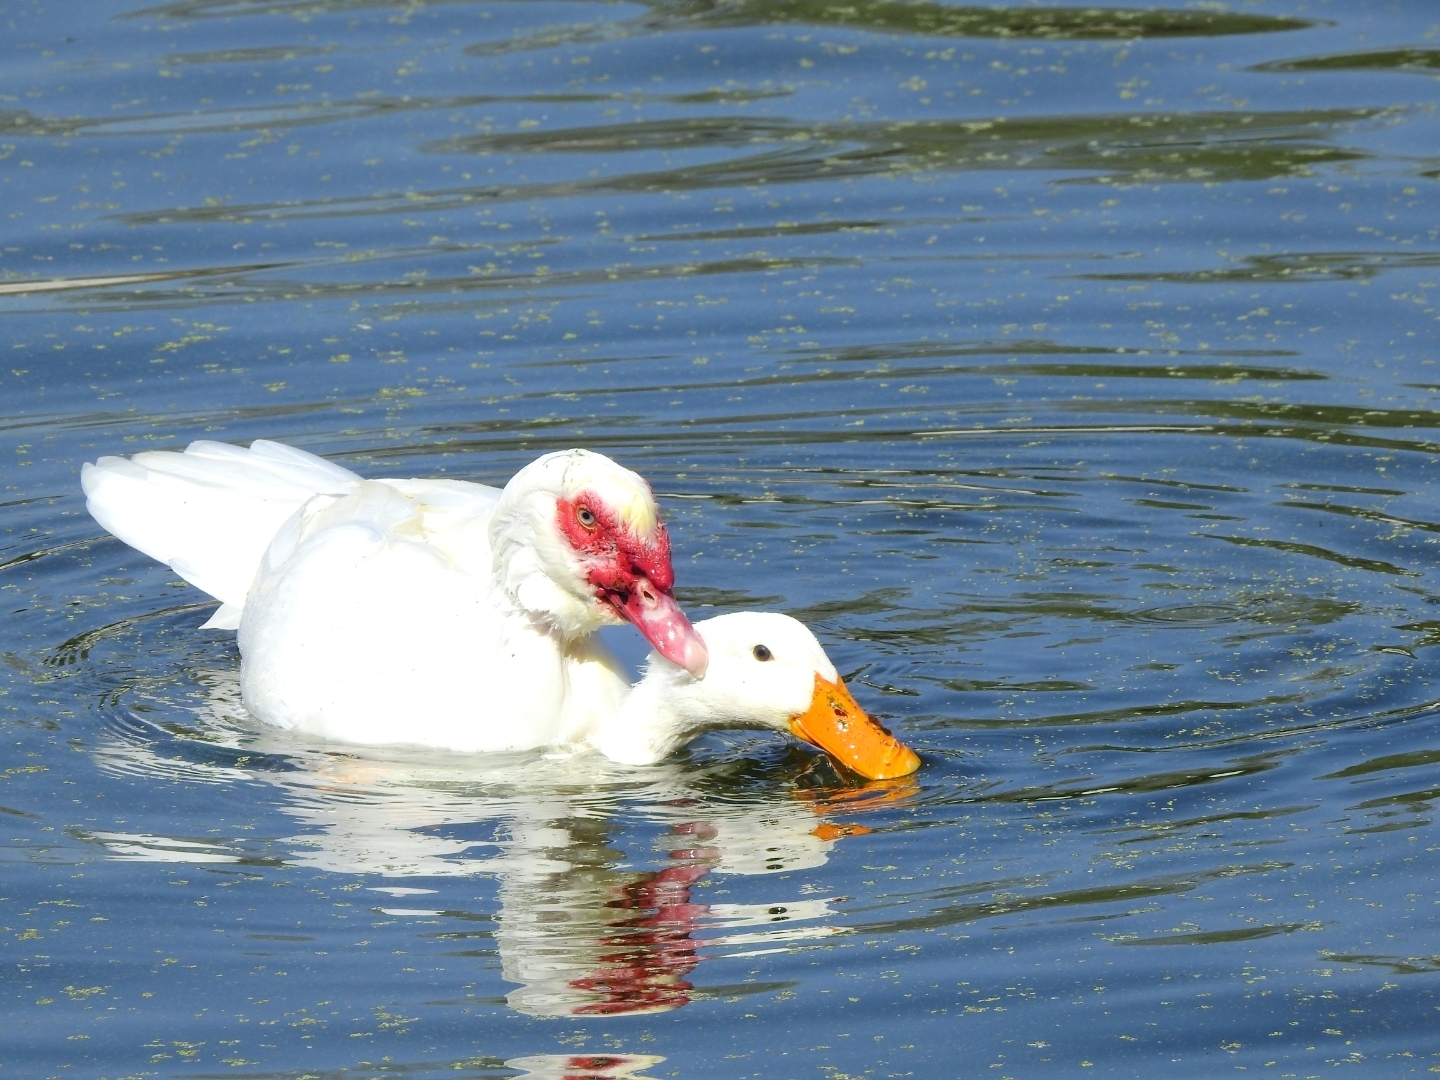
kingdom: Animalia
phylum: Chordata
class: Aves
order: Anseriformes
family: Anatidae
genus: Cairina
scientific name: Cairina moschata
